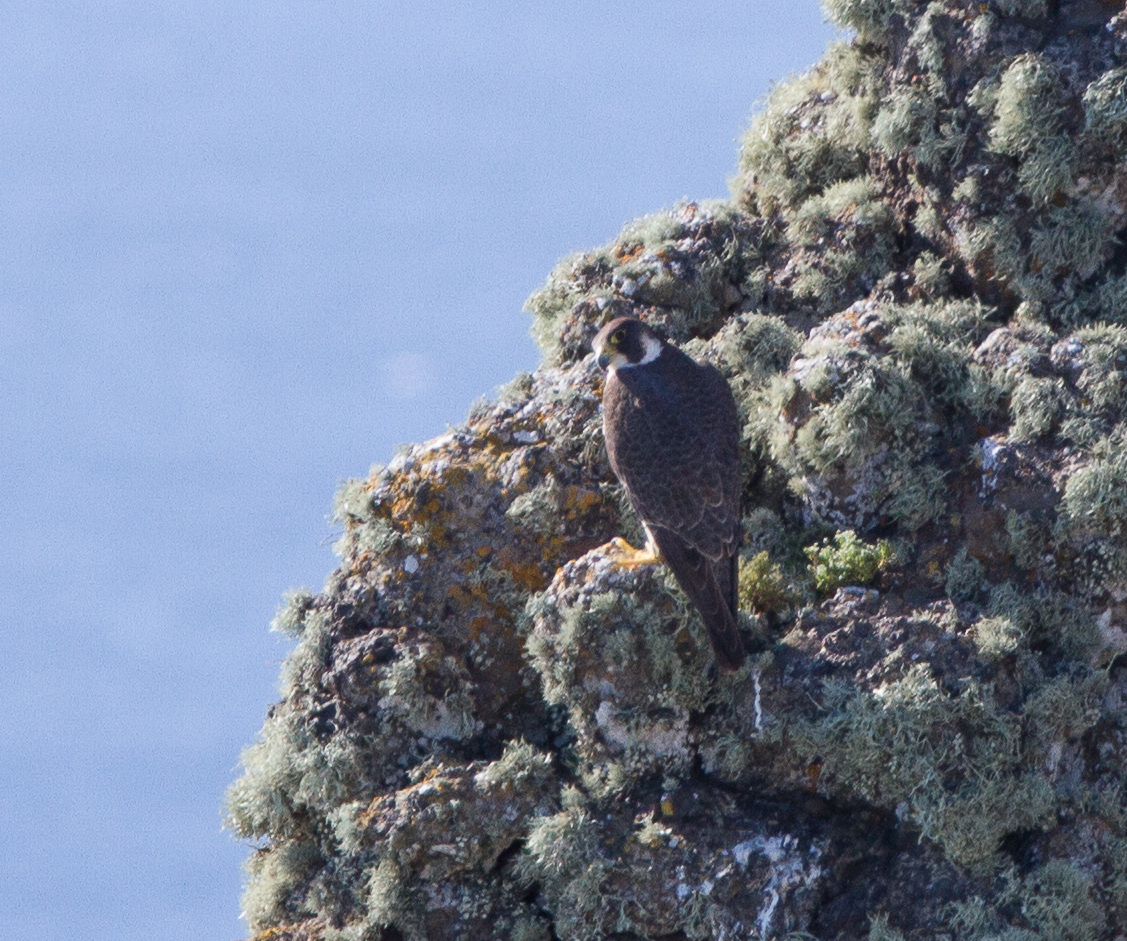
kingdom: Animalia
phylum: Chordata
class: Aves
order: Falconiformes
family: Falconidae
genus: Falco
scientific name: Falco peregrinus
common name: Peregrine falcon
